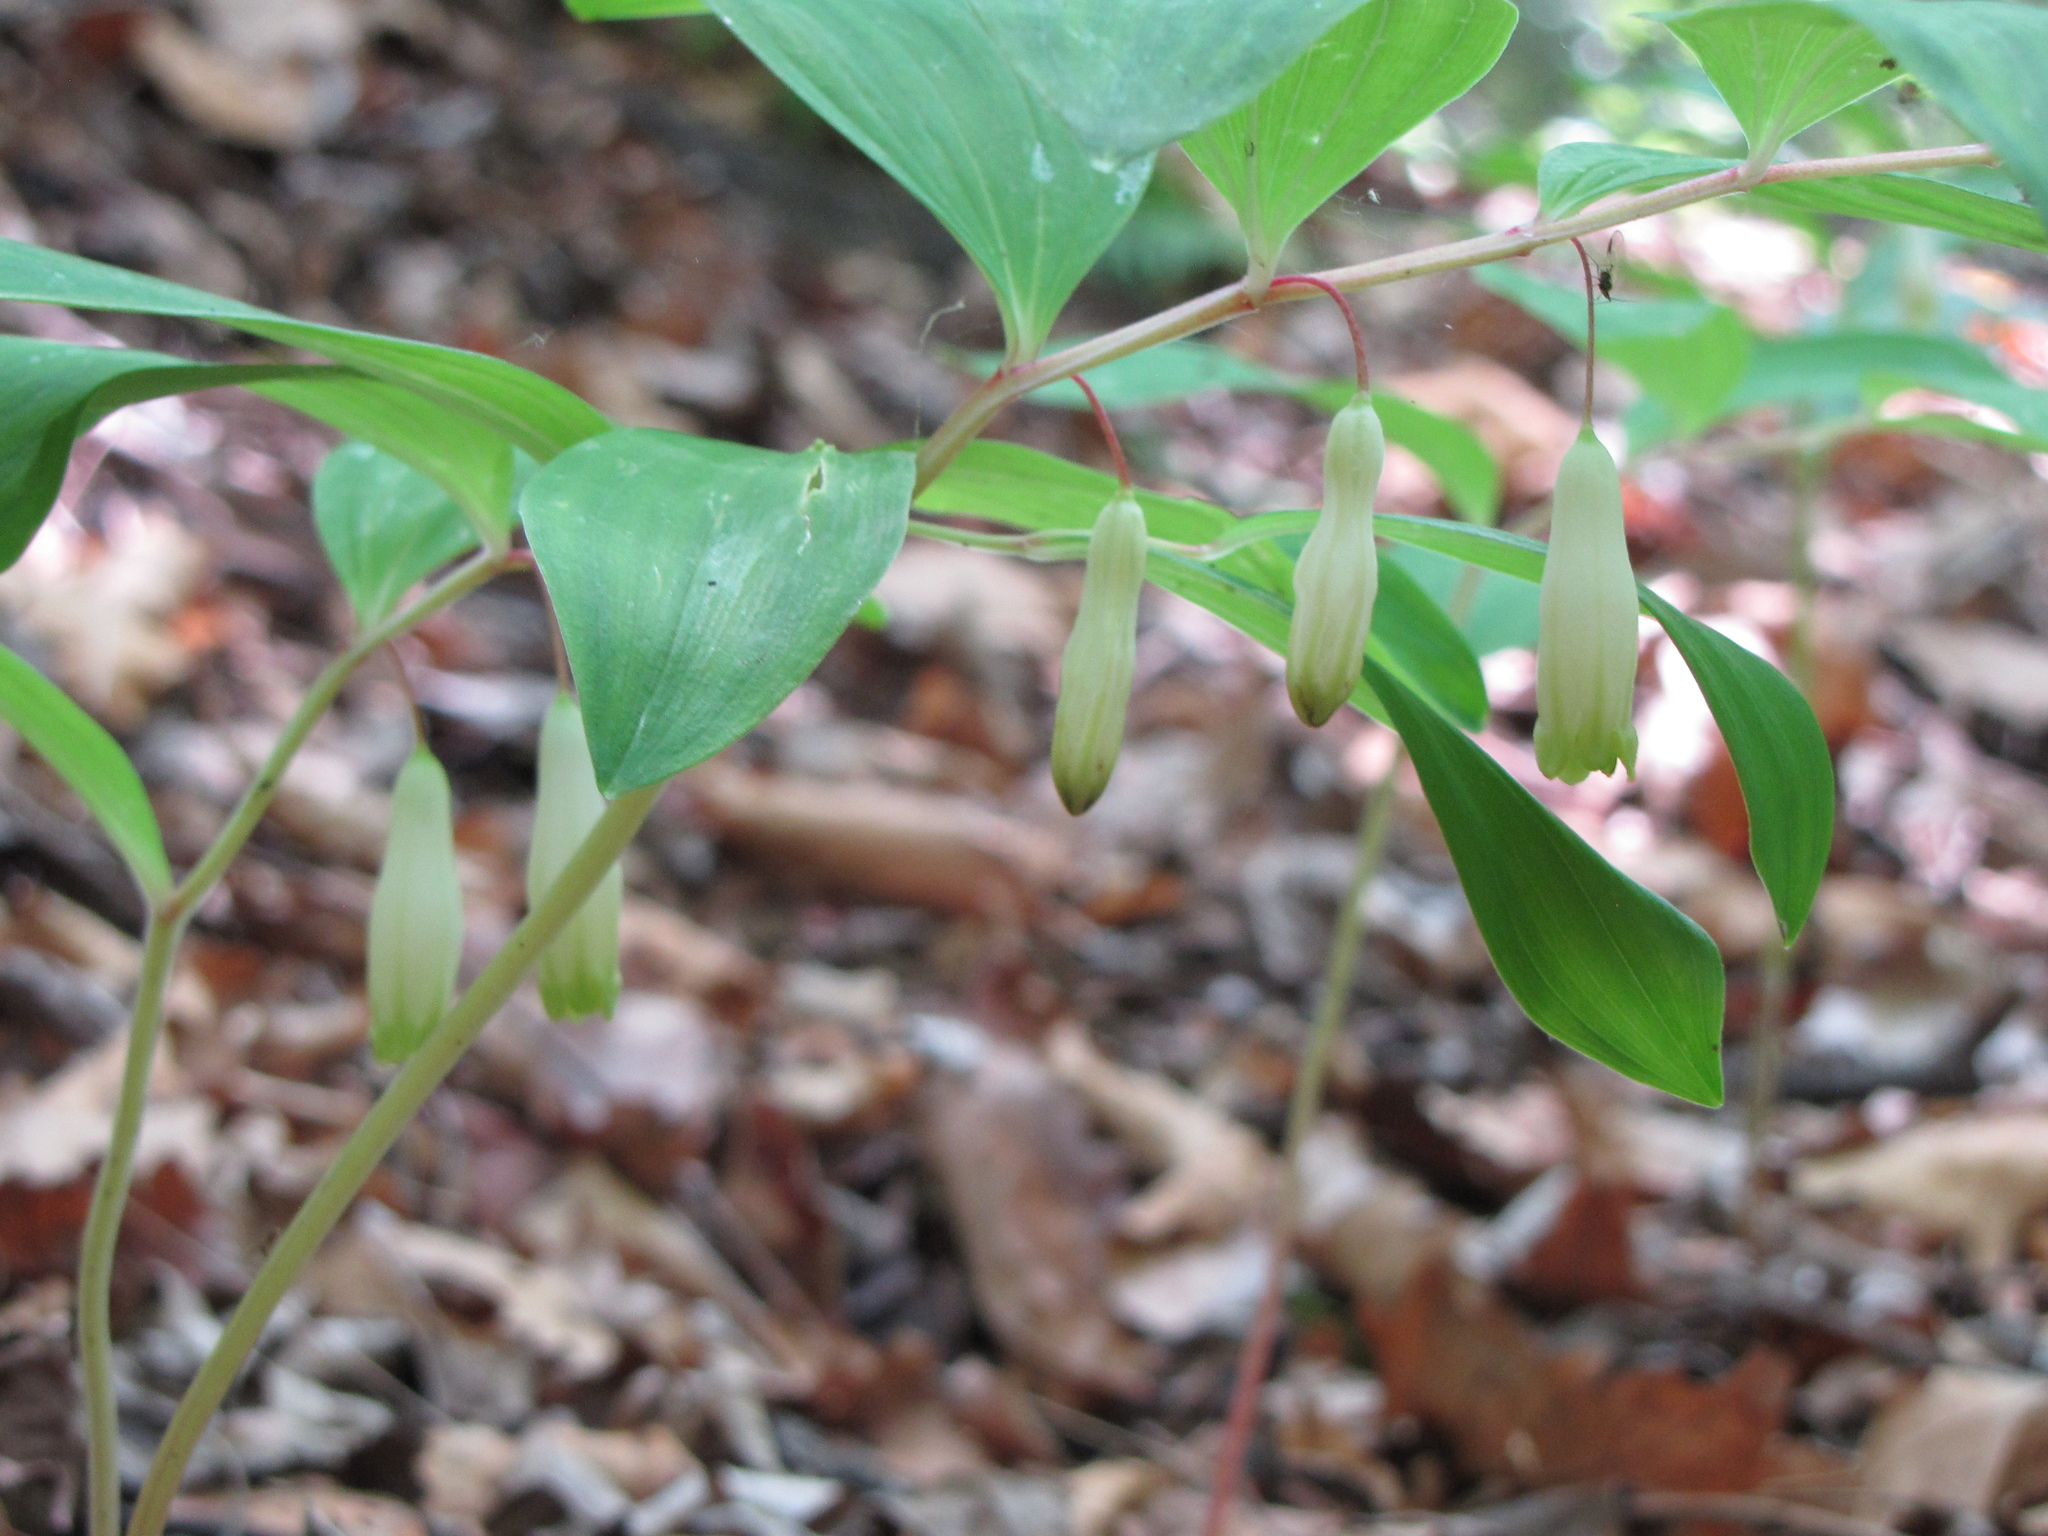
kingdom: Plantae
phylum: Tracheophyta
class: Liliopsida
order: Asparagales
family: Asparagaceae
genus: Polygonatum
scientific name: Polygonatum odoratum
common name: Angular solomon's-seal
